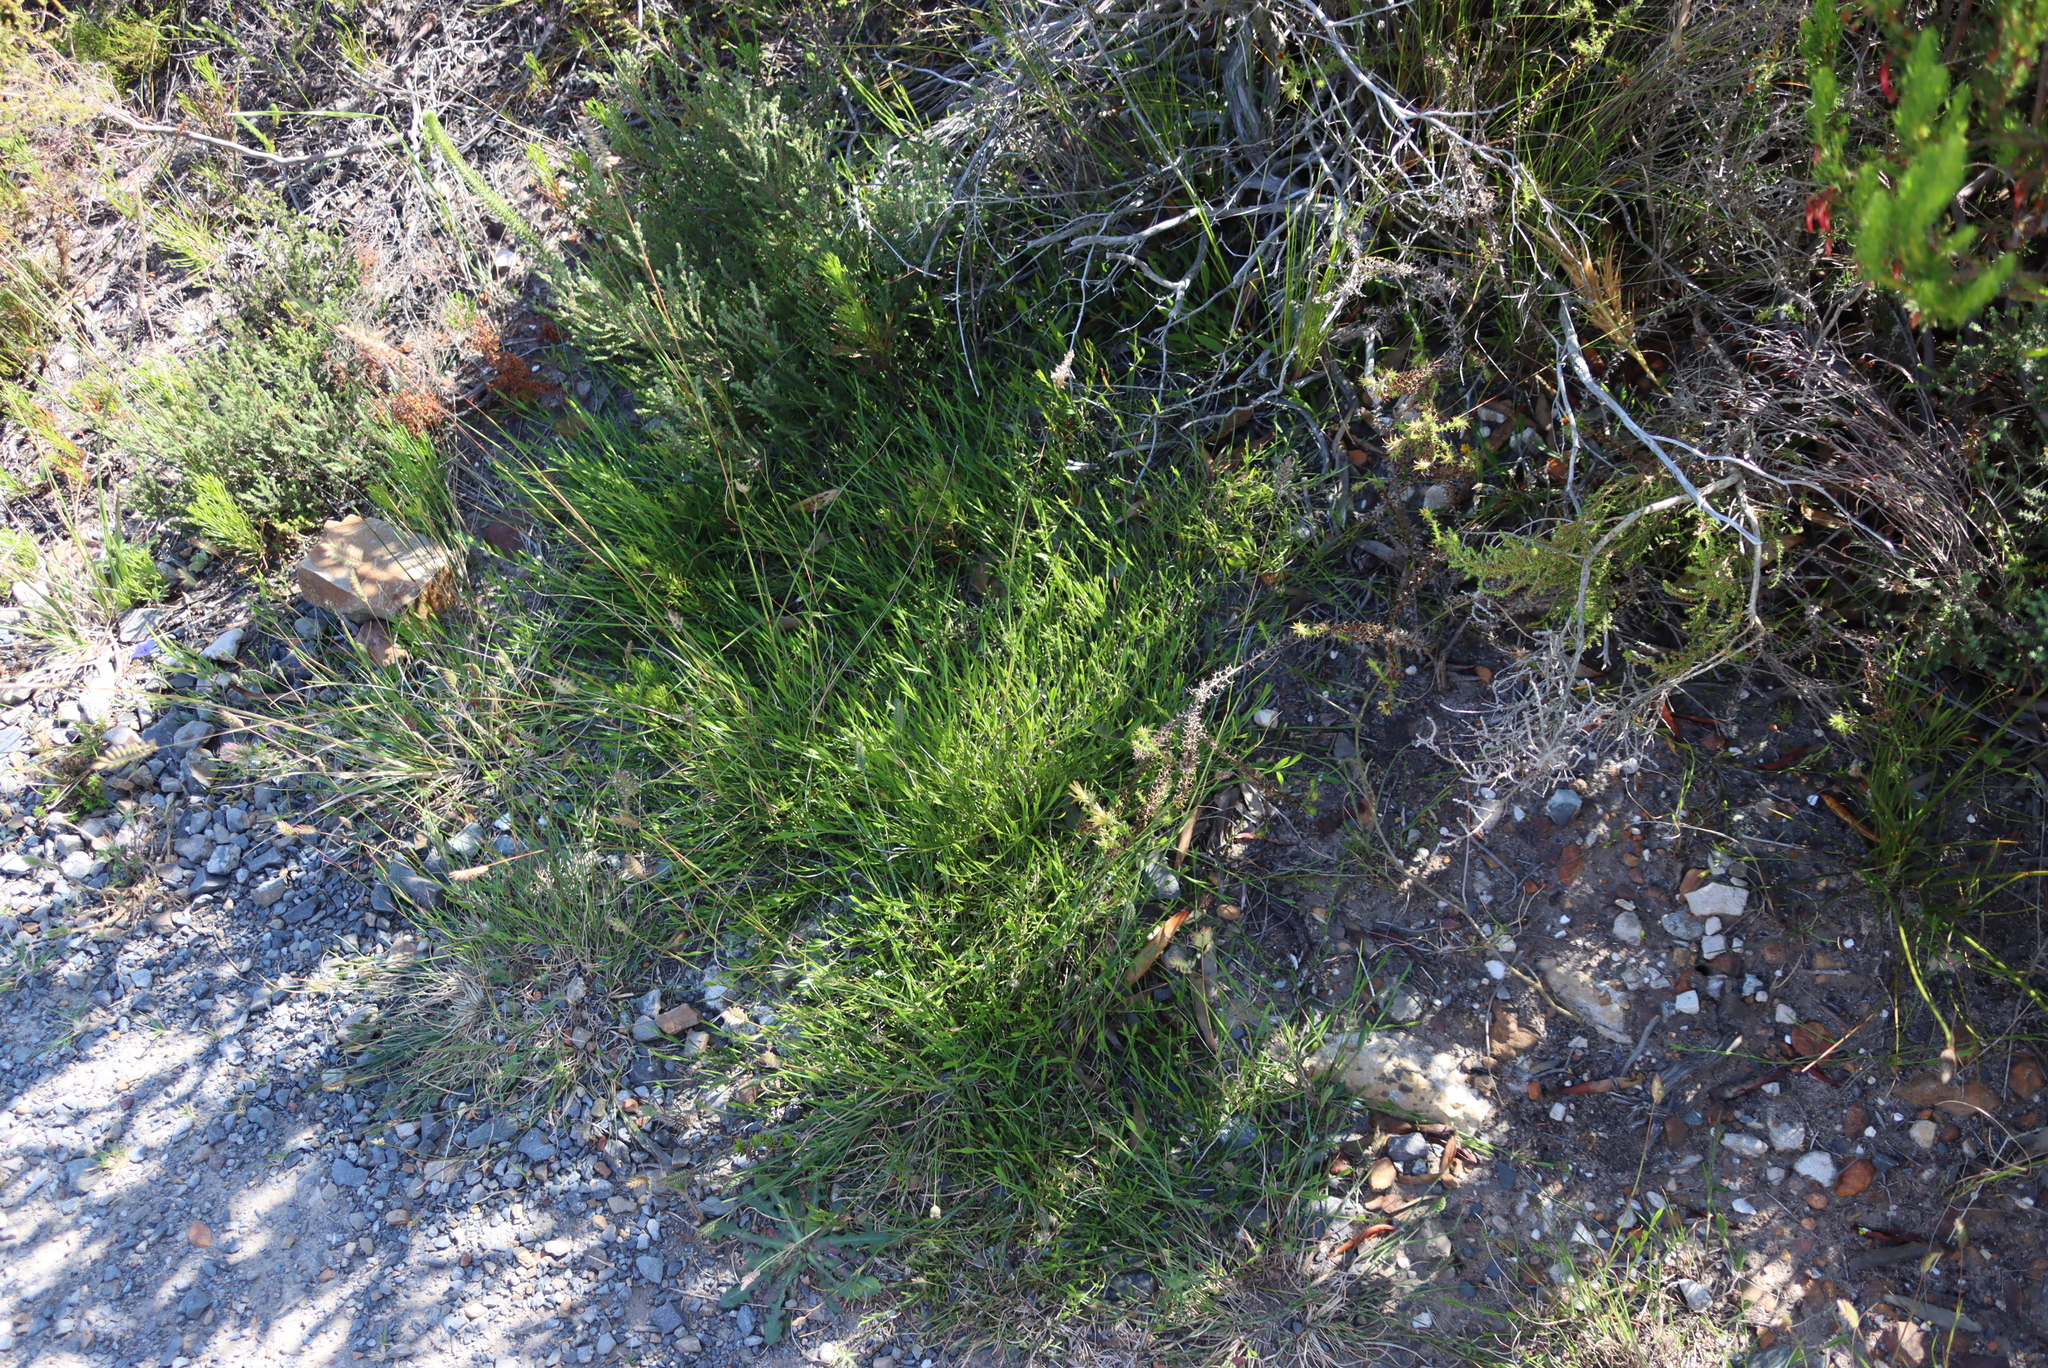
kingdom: Plantae
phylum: Tracheophyta
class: Magnoliopsida
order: Apiales
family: Apiaceae
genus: Centella
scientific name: Centella glabrata
